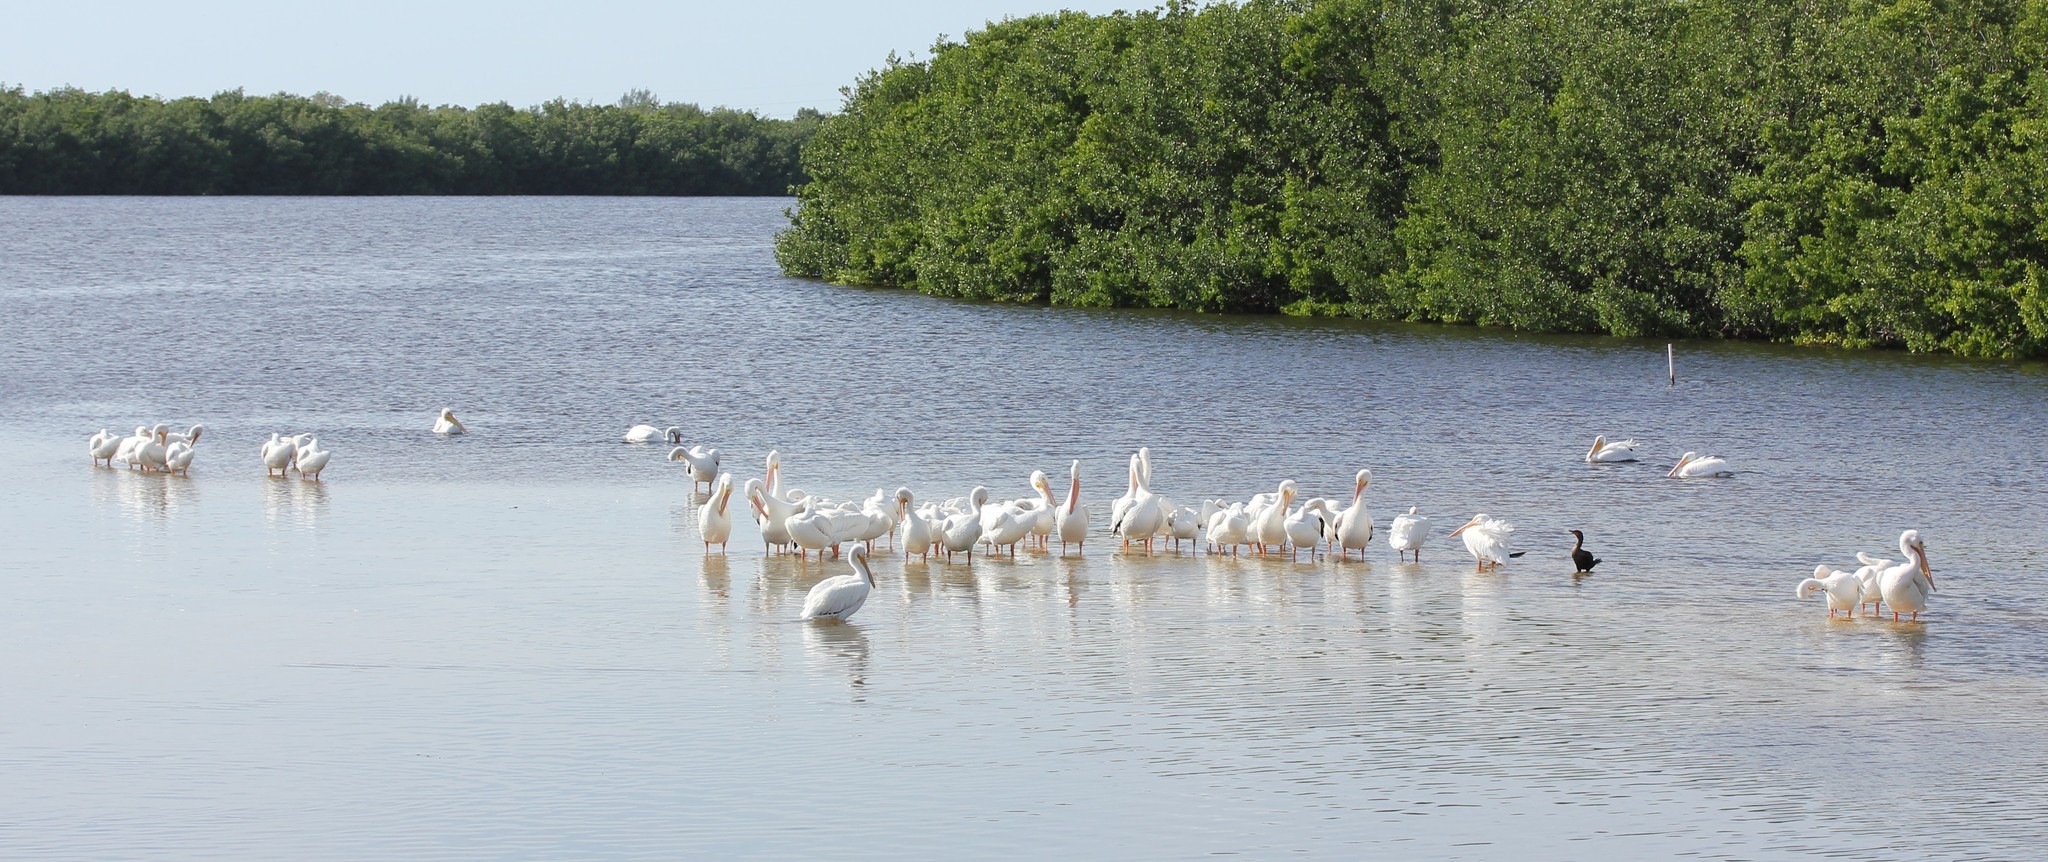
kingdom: Animalia
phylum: Chordata
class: Aves
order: Pelecaniformes
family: Pelecanidae
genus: Pelecanus
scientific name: Pelecanus erythrorhynchos
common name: American white pelican
